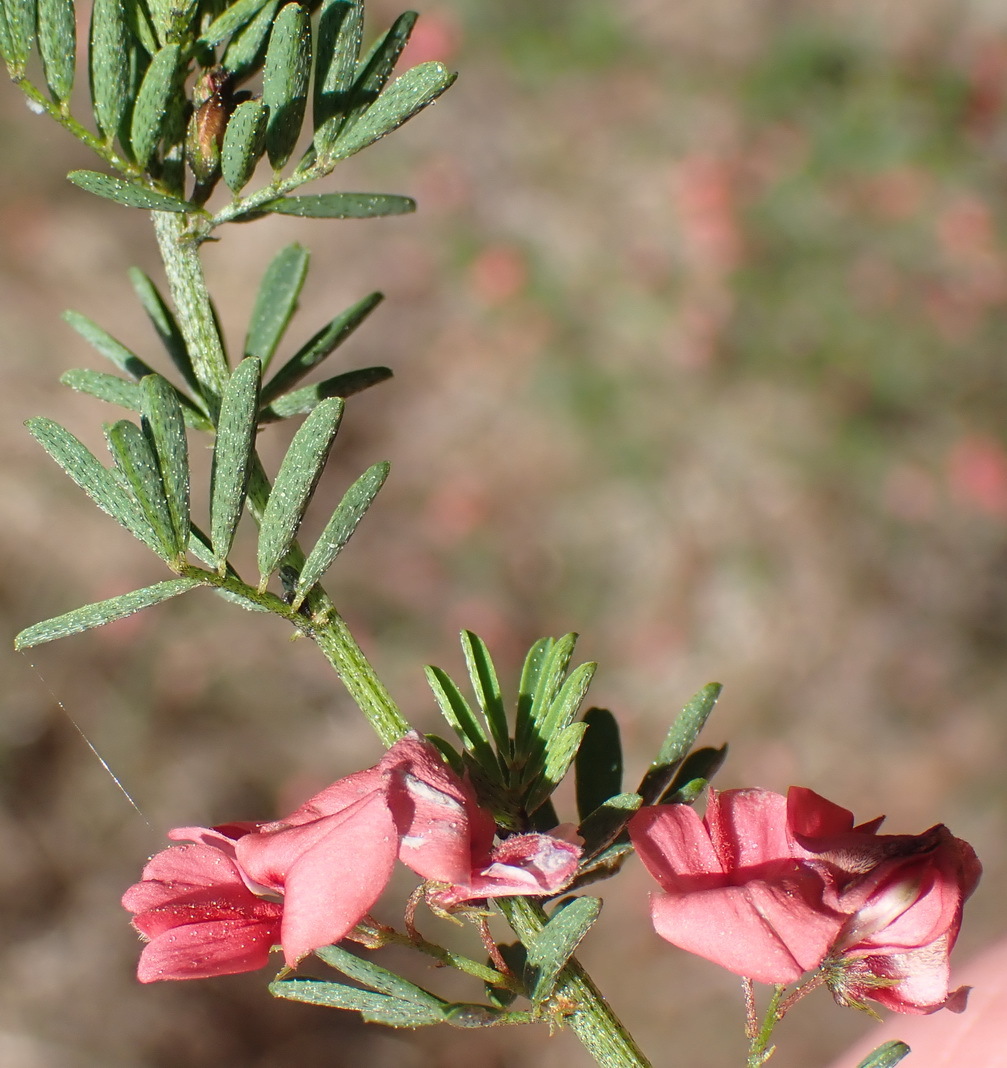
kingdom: Plantae
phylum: Tracheophyta
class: Magnoliopsida
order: Fabales
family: Fabaceae
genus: Indigofera
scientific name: Indigofera stricta
